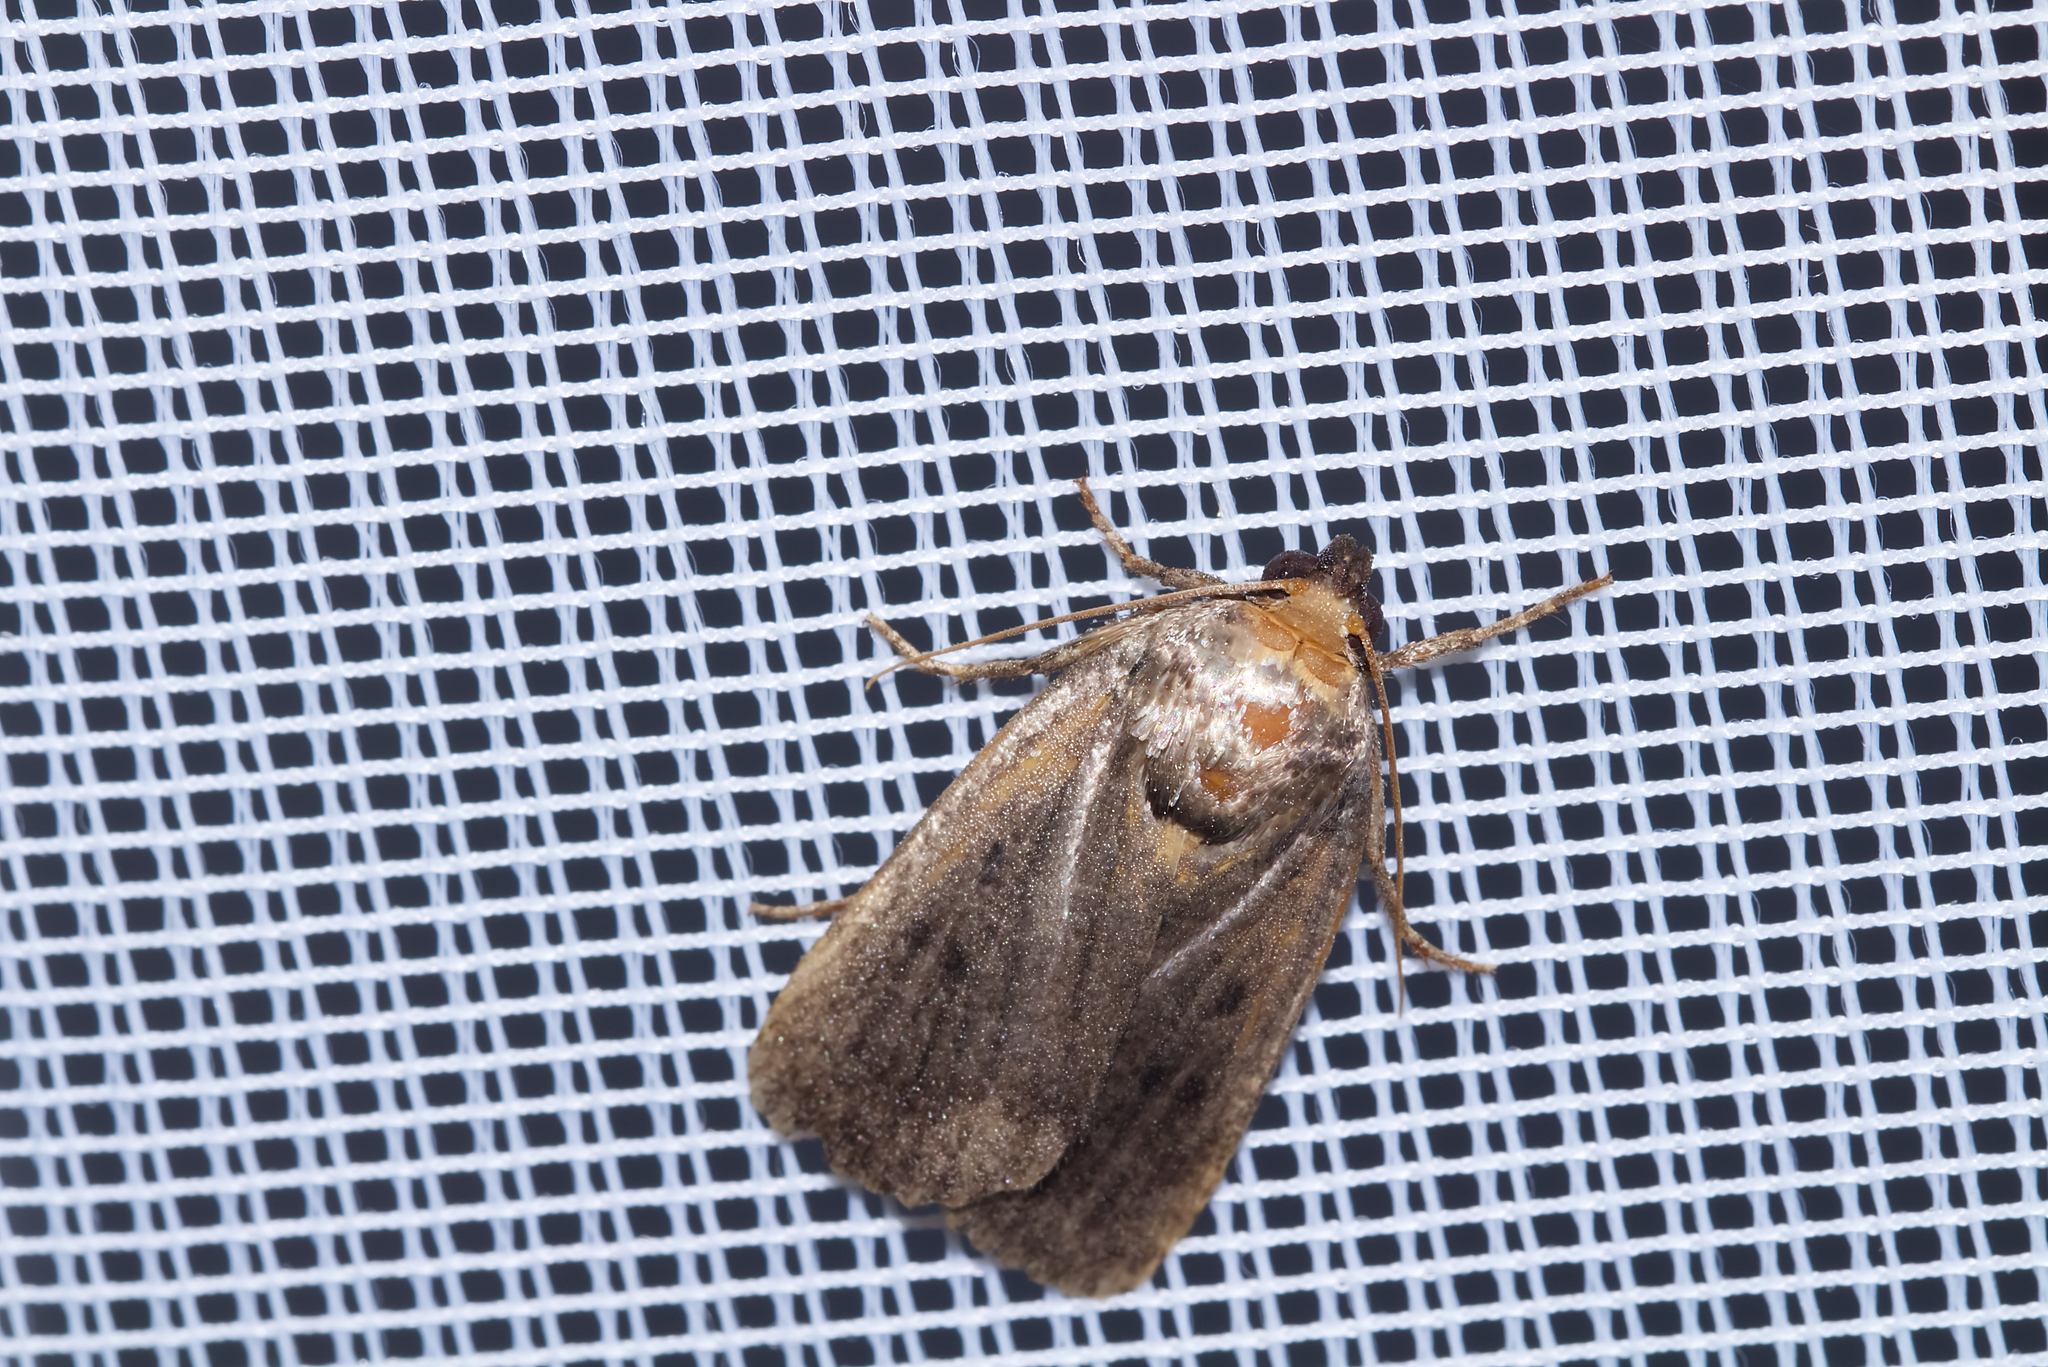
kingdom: Animalia
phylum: Arthropoda
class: Insecta
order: Lepidoptera
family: Noctuidae
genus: Amphipyra
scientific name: Amphipyra tragopoginis
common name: Mouse moth
